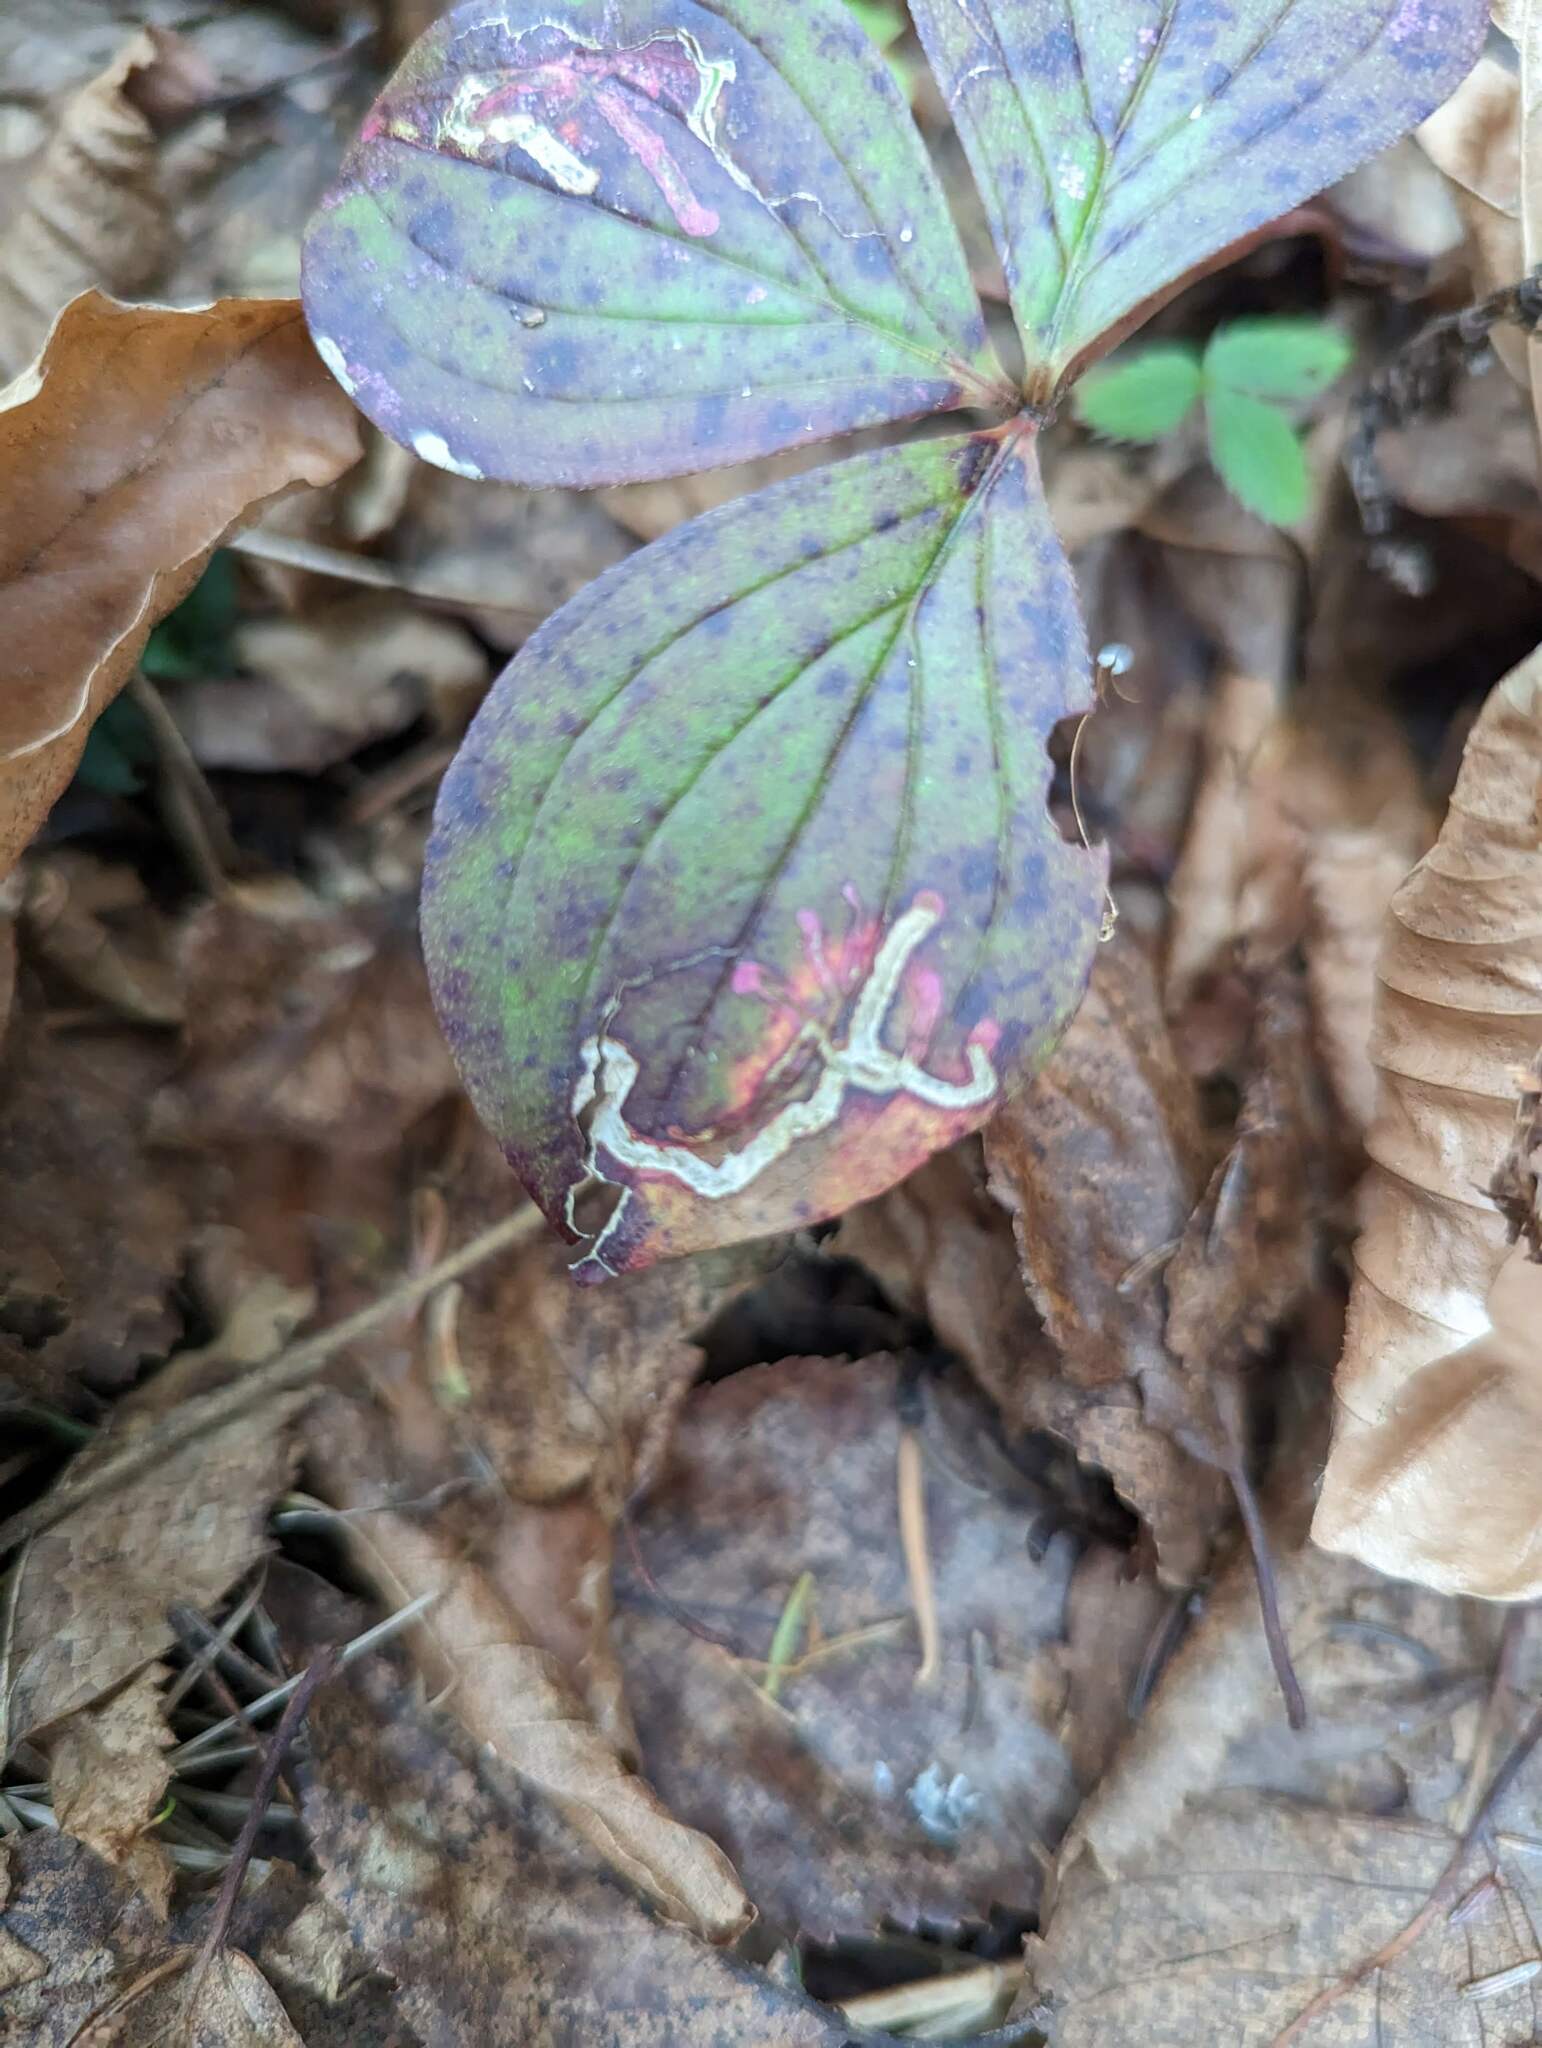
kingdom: Animalia
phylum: Arthropoda
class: Insecta
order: Diptera
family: Agromyzidae
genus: Phytomyza
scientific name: Phytomyza agromyzina
